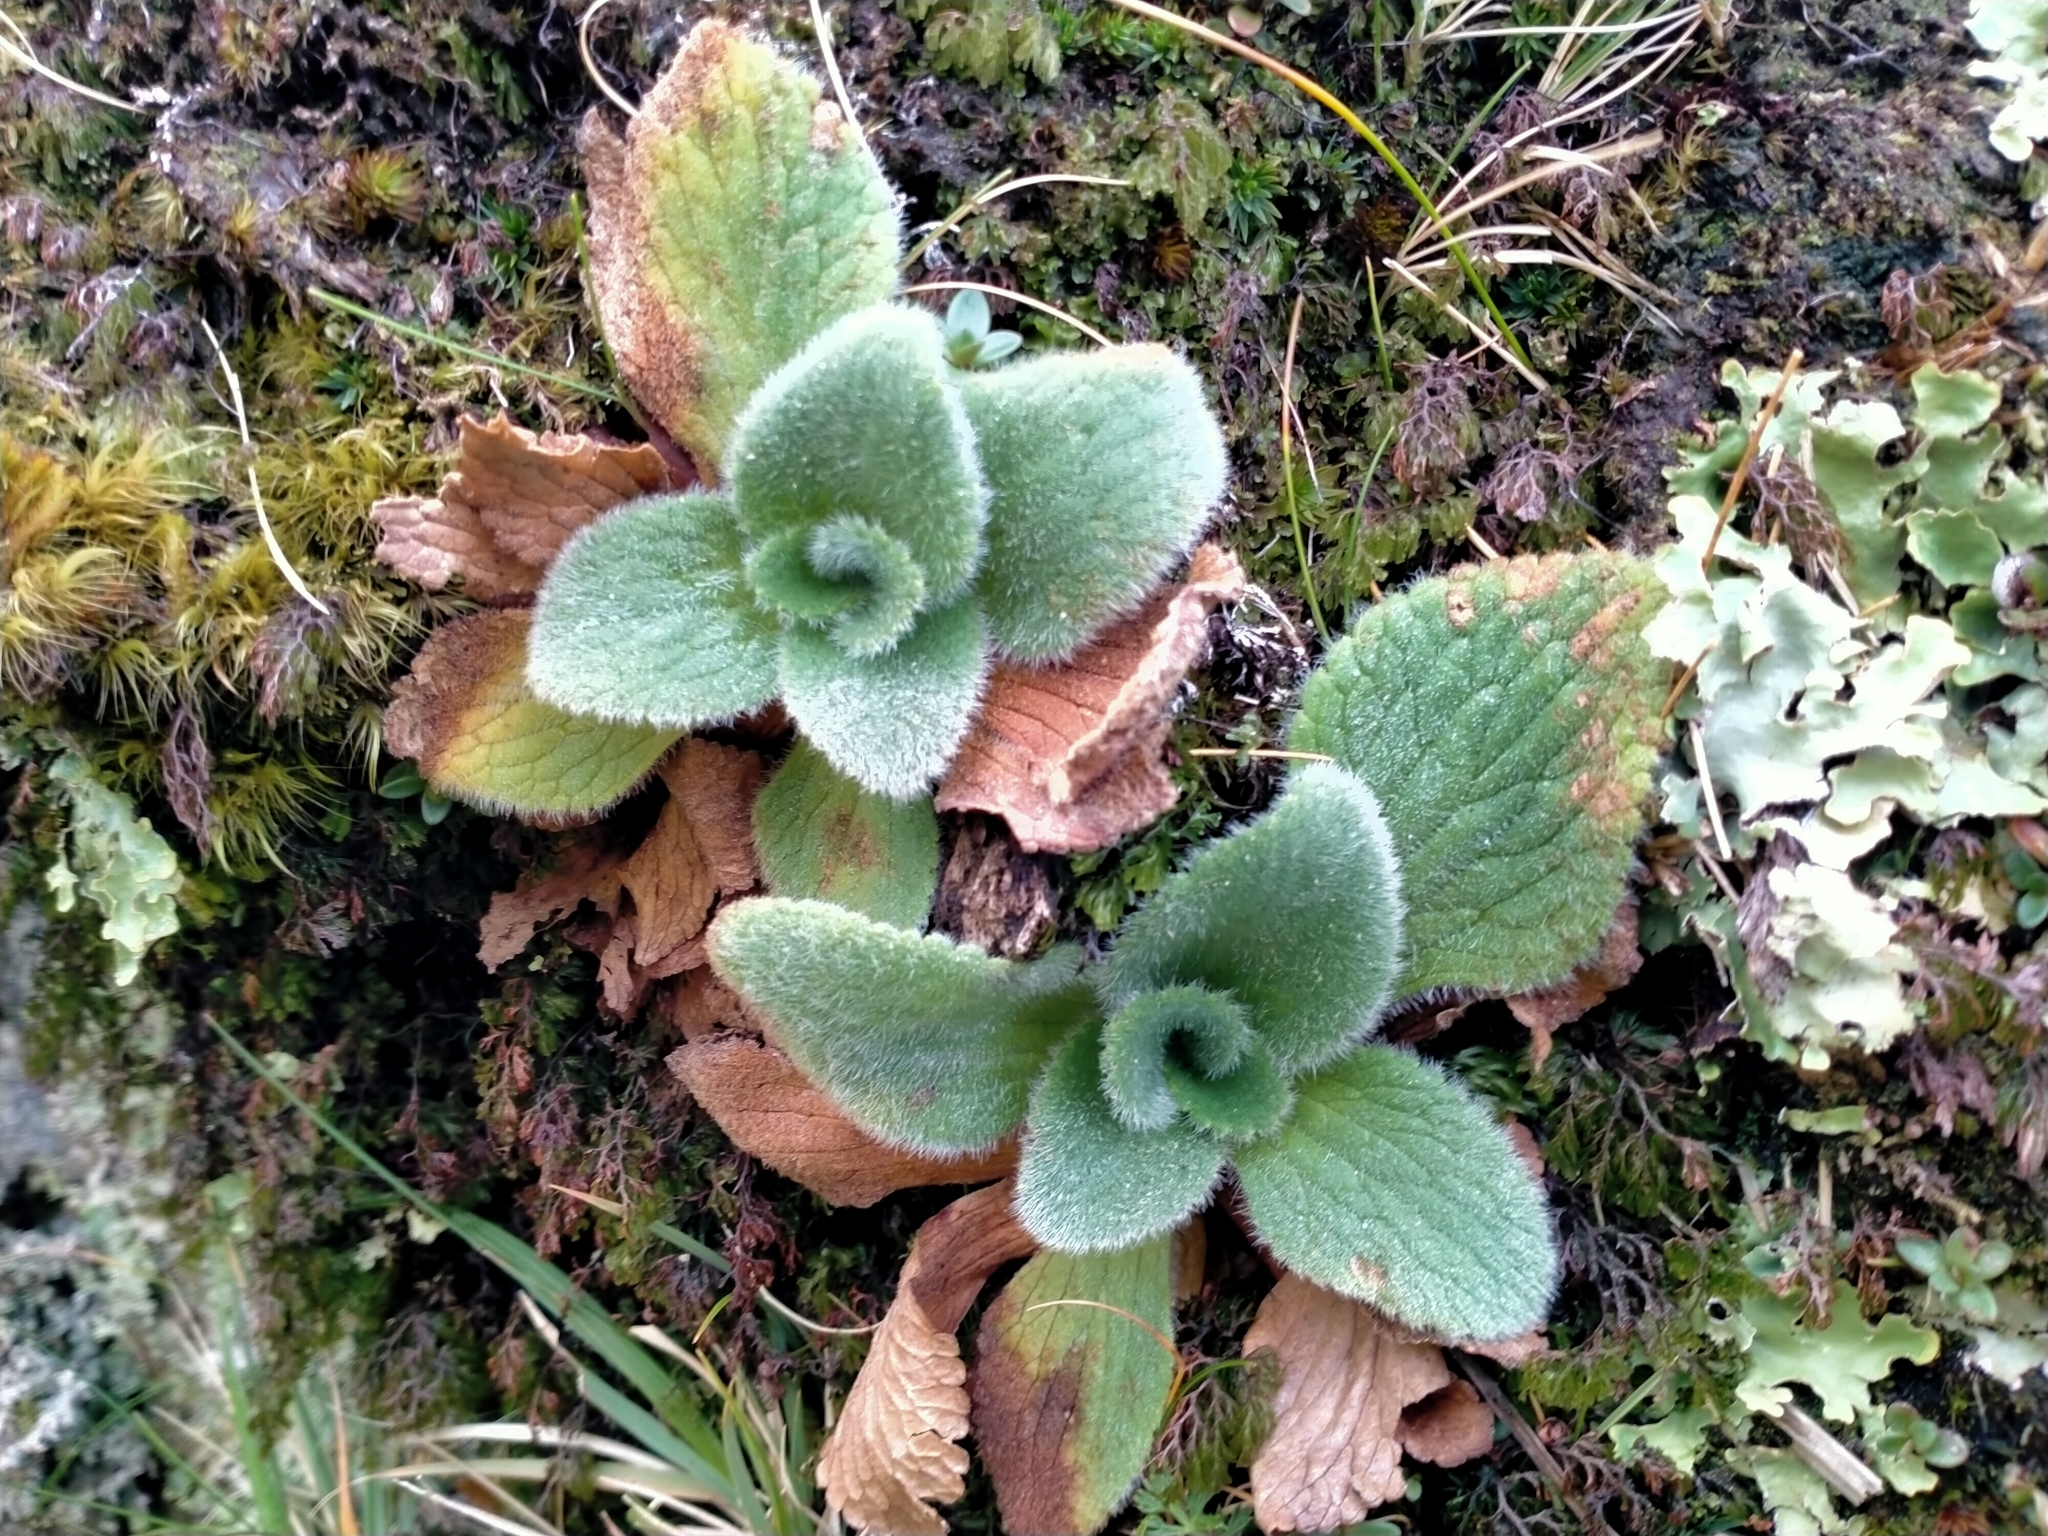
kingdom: Plantae
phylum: Tracheophyta
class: Magnoliopsida
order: Lamiales
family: Plantaginaceae
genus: Ourisia
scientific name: Ourisia sessilifolia
